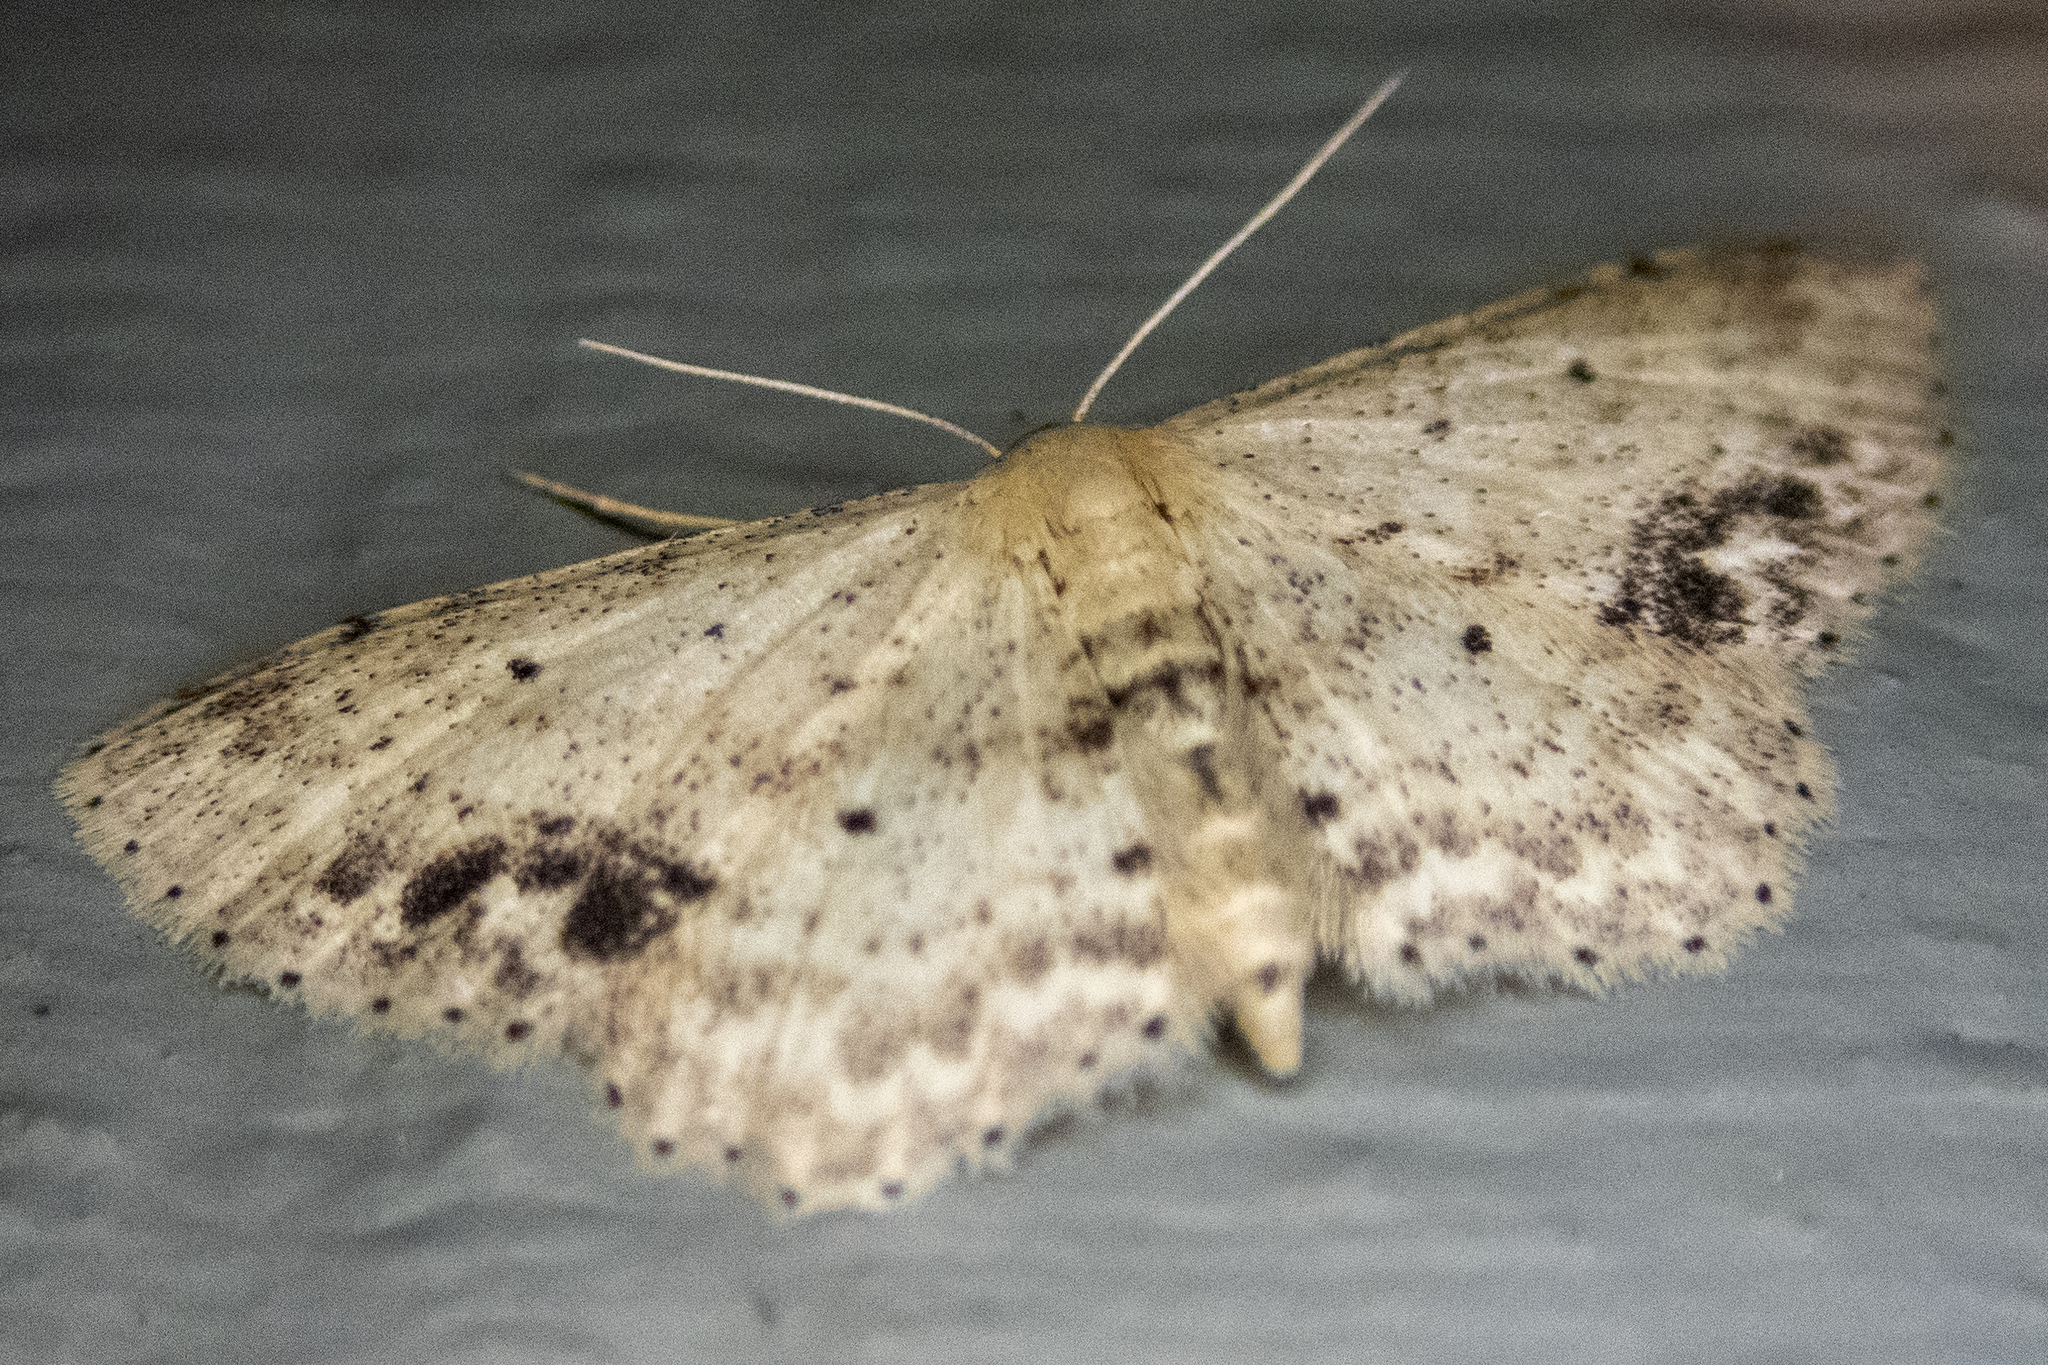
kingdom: Animalia
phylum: Arthropoda
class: Insecta
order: Lepidoptera
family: Geometridae
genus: Idaea
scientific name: Idaea dimidiata
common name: Single-dotted wave
